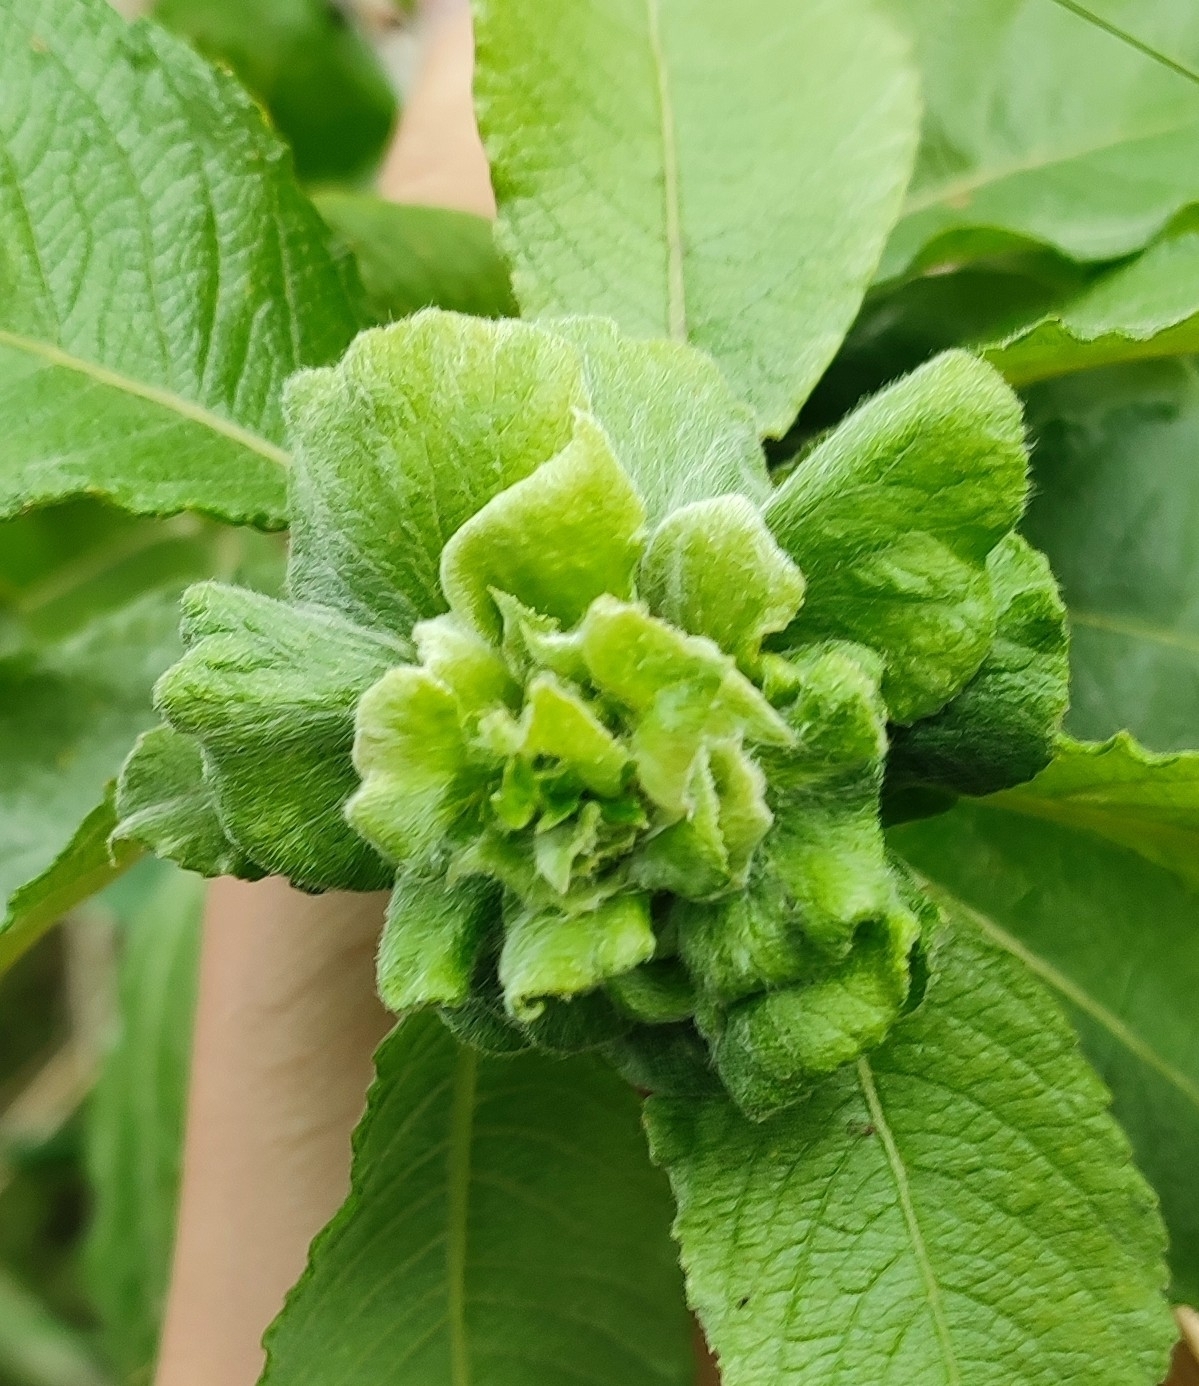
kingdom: Animalia
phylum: Arthropoda
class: Insecta
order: Diptera
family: Cecidomyiidae
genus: Rabdophaga
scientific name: Rabdophaga rosaria
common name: Willow rose gall midge
